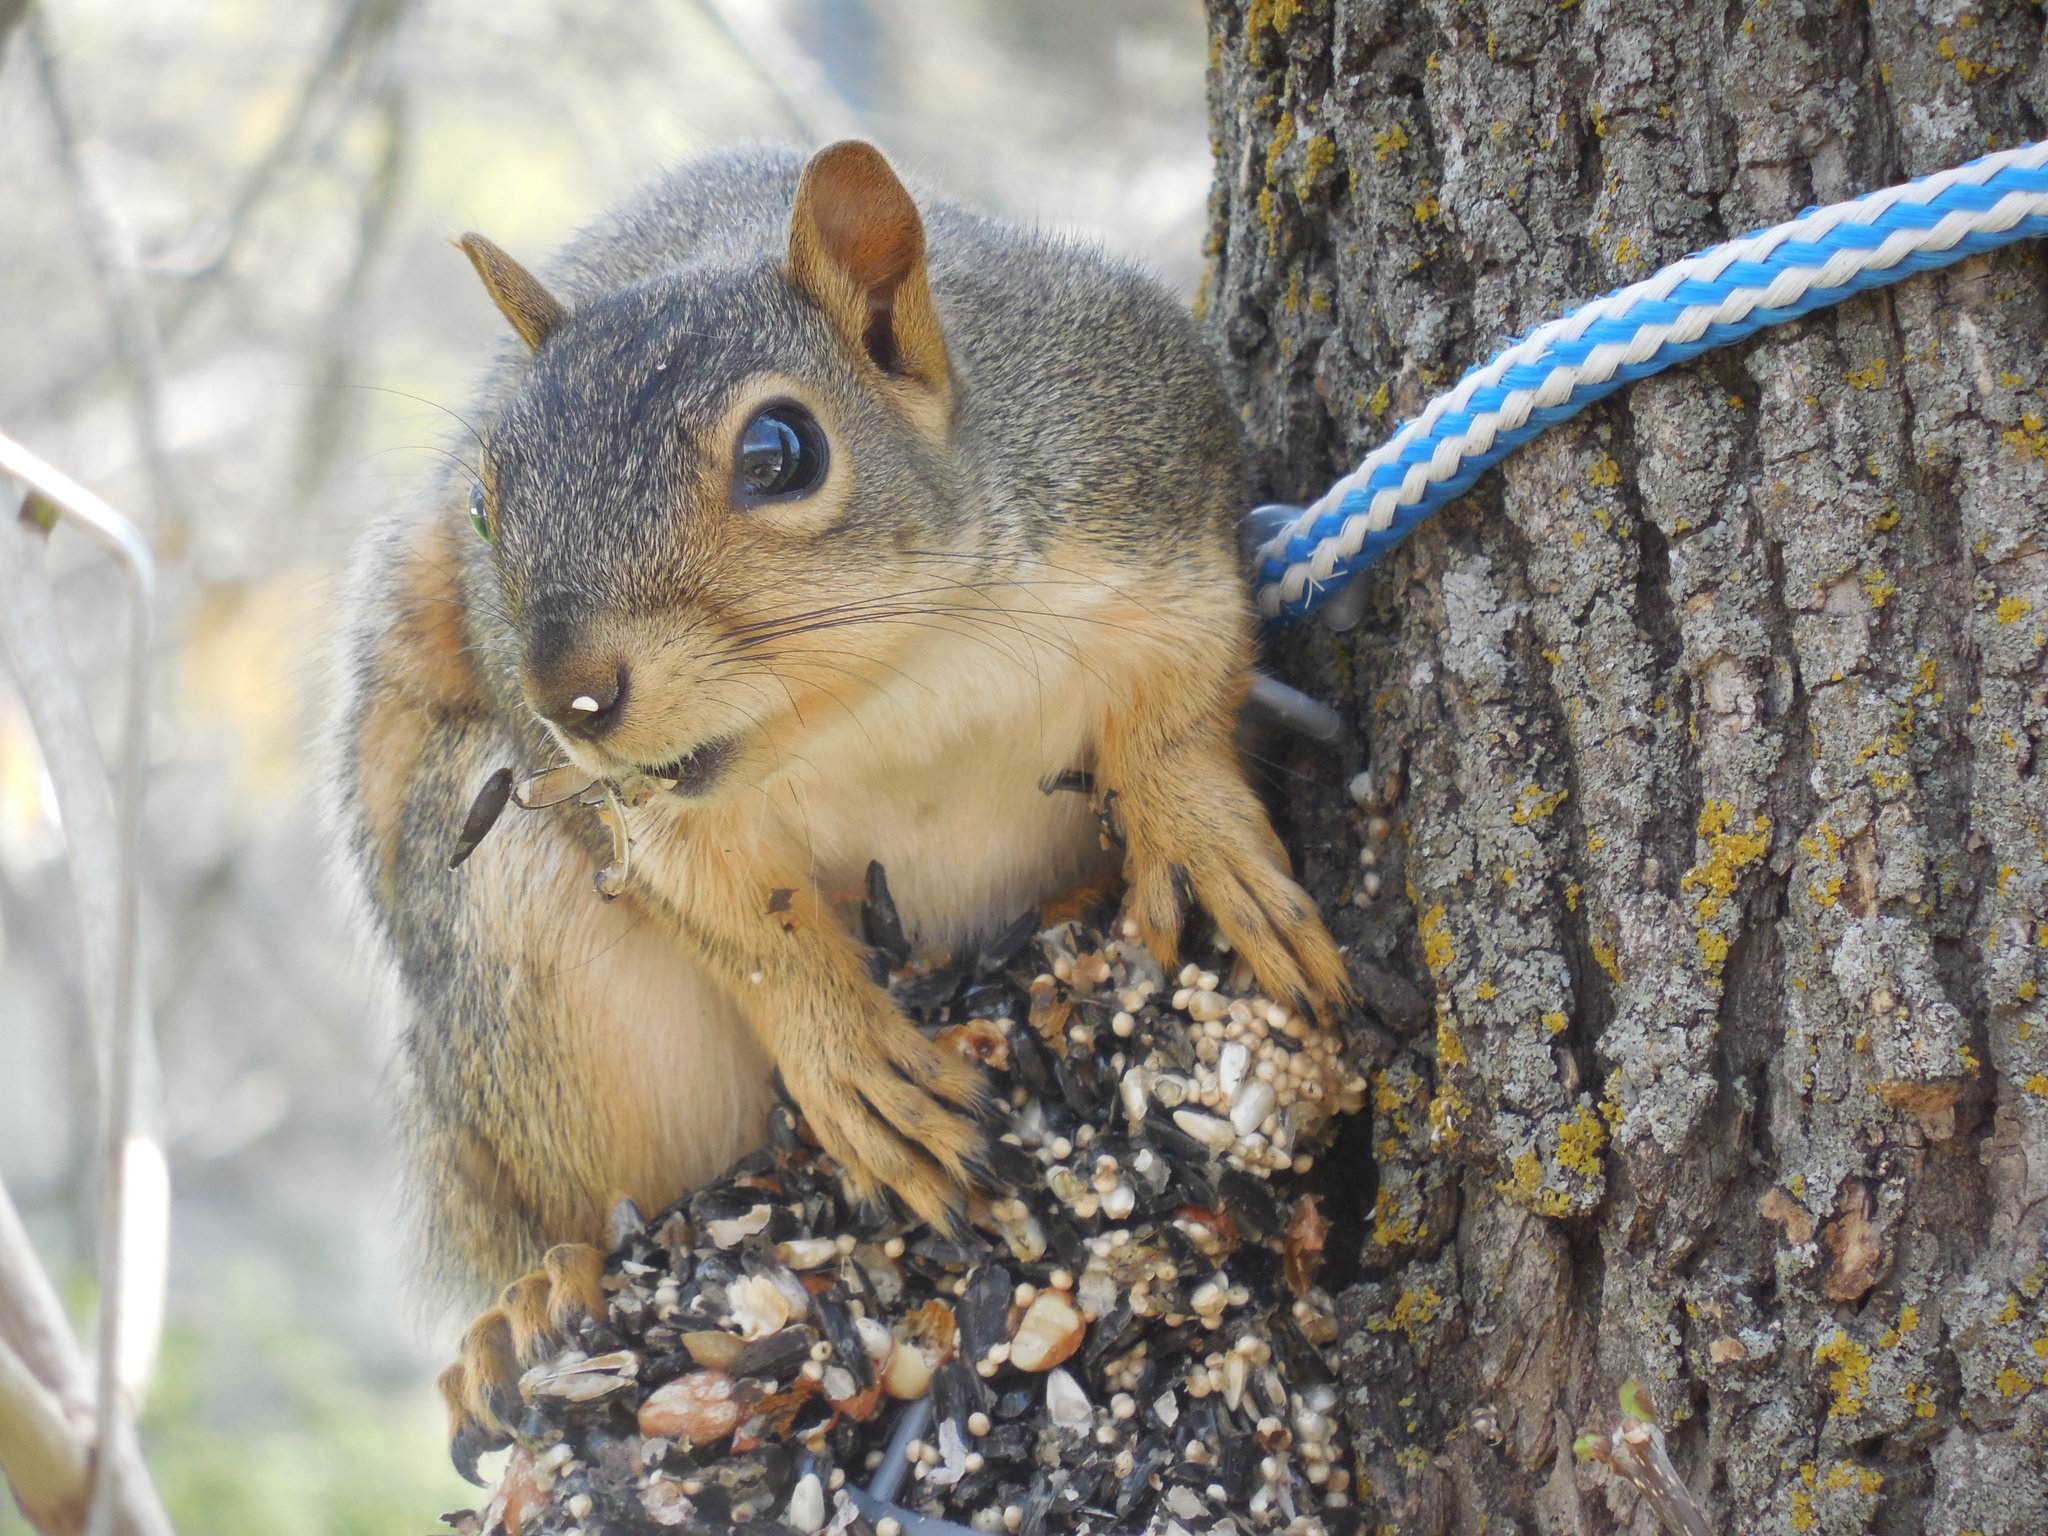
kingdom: Animalia
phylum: Chordata
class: Mammalia
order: Rodentia
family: Sciuridae
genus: Sciurus
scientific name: Sciurus niger
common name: Fox squirrel
